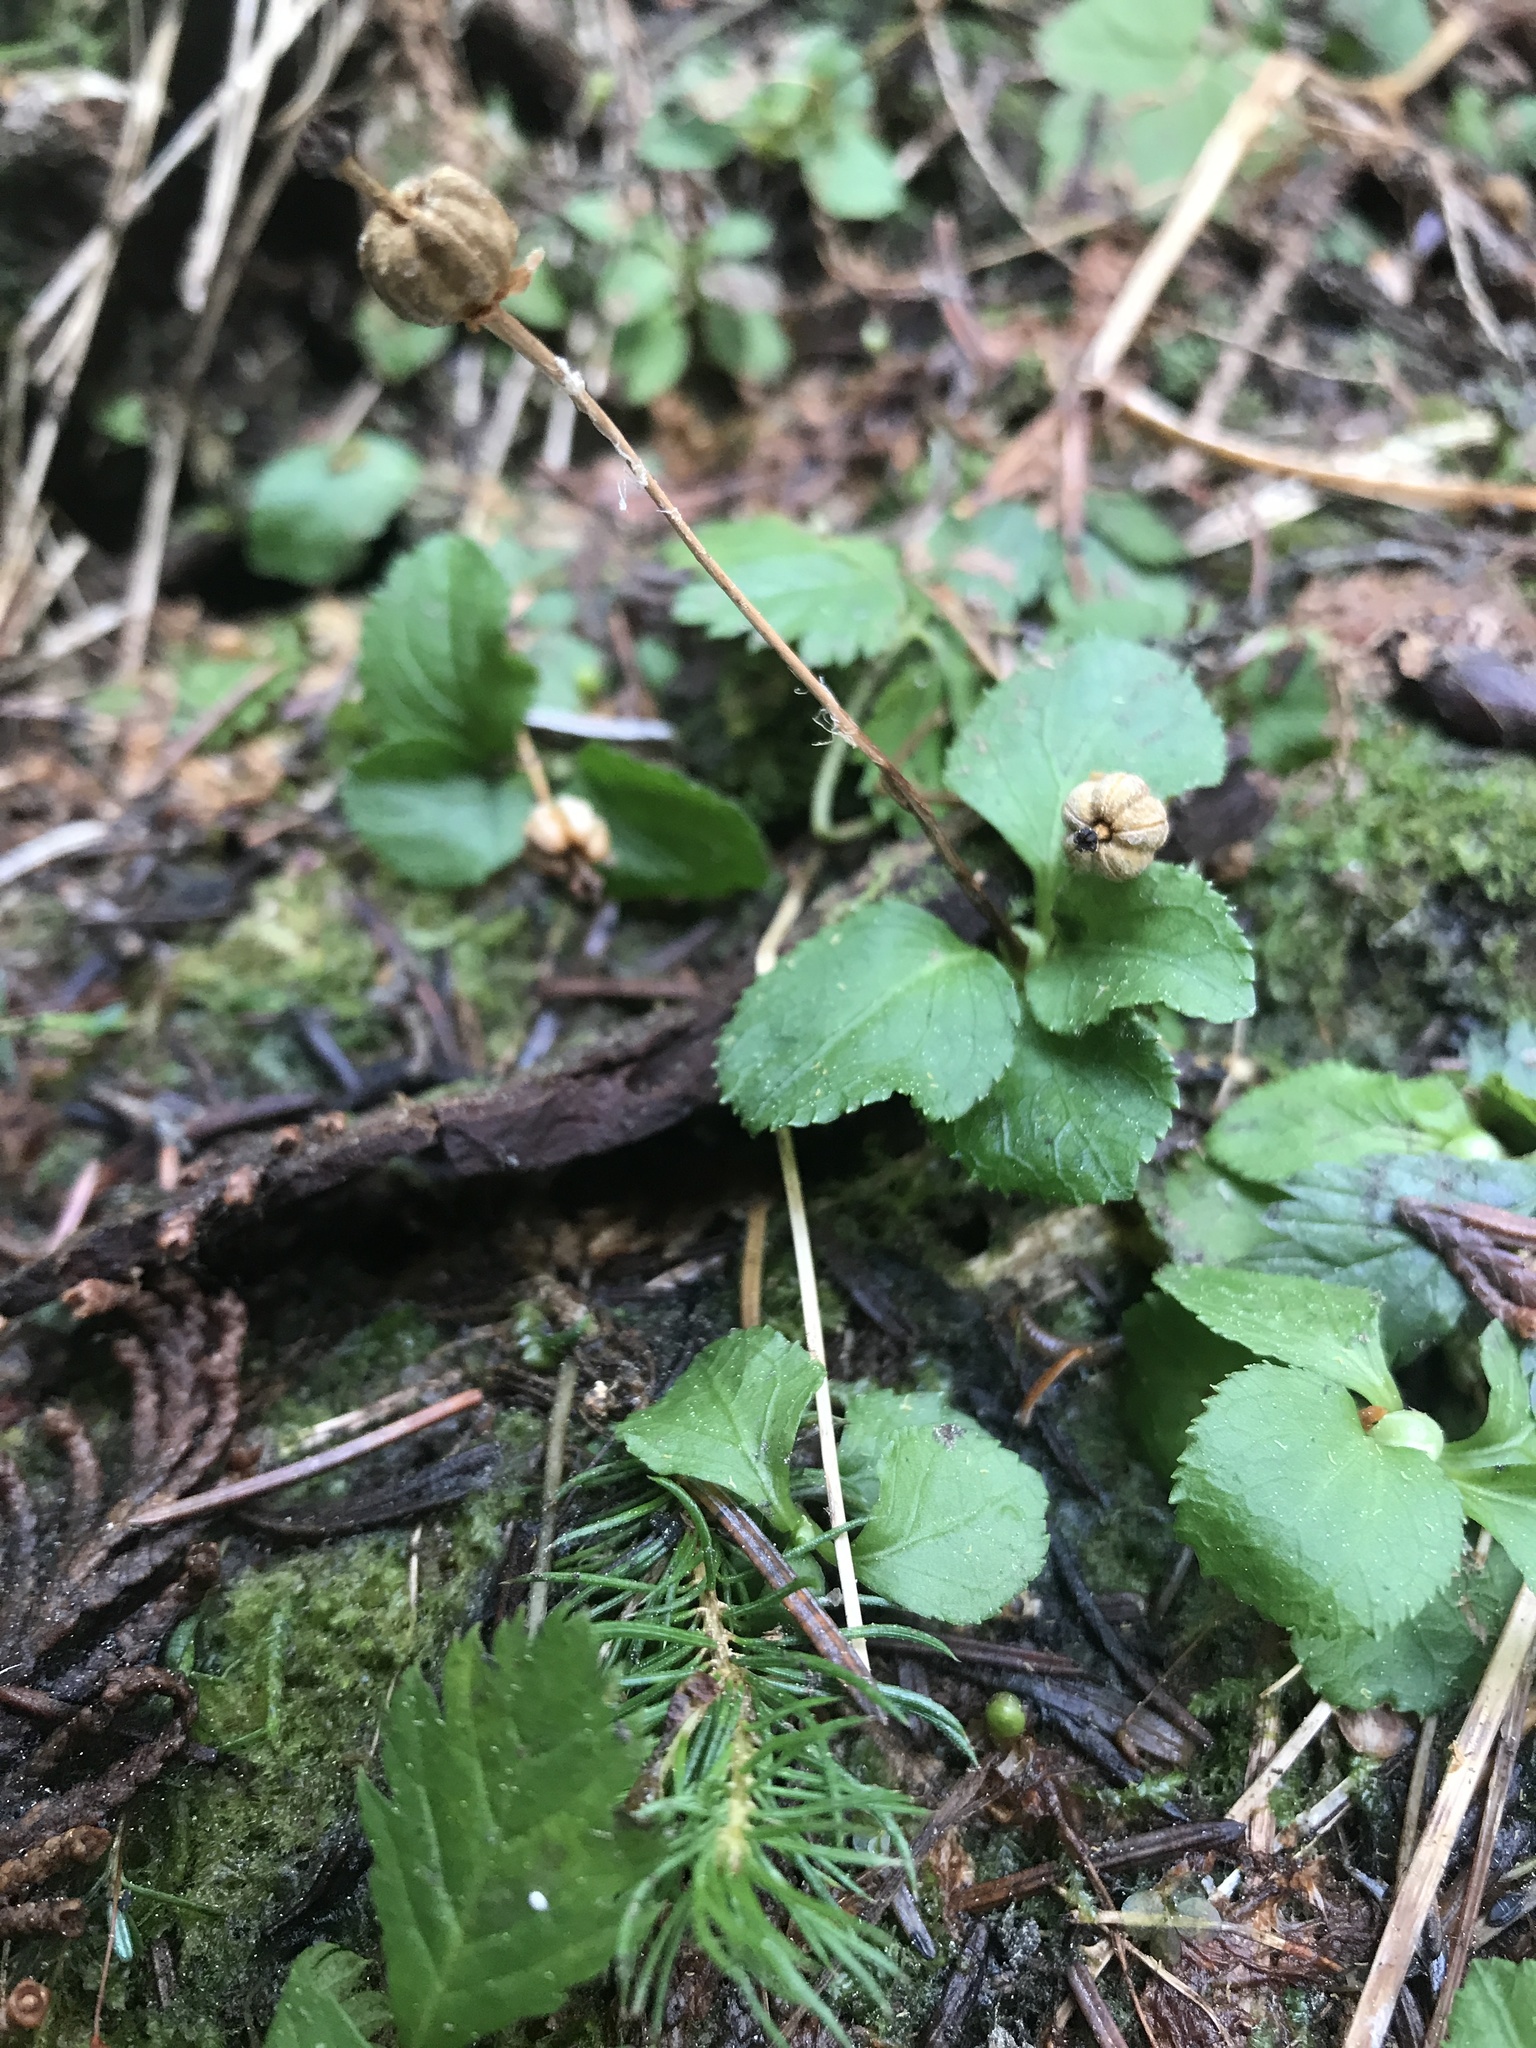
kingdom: Plantae
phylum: Tracheophyta
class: Magnoliopsida
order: Ericales
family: Ericaceae
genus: Moneses
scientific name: Moneses uniflora
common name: One-flowered wintergreen
